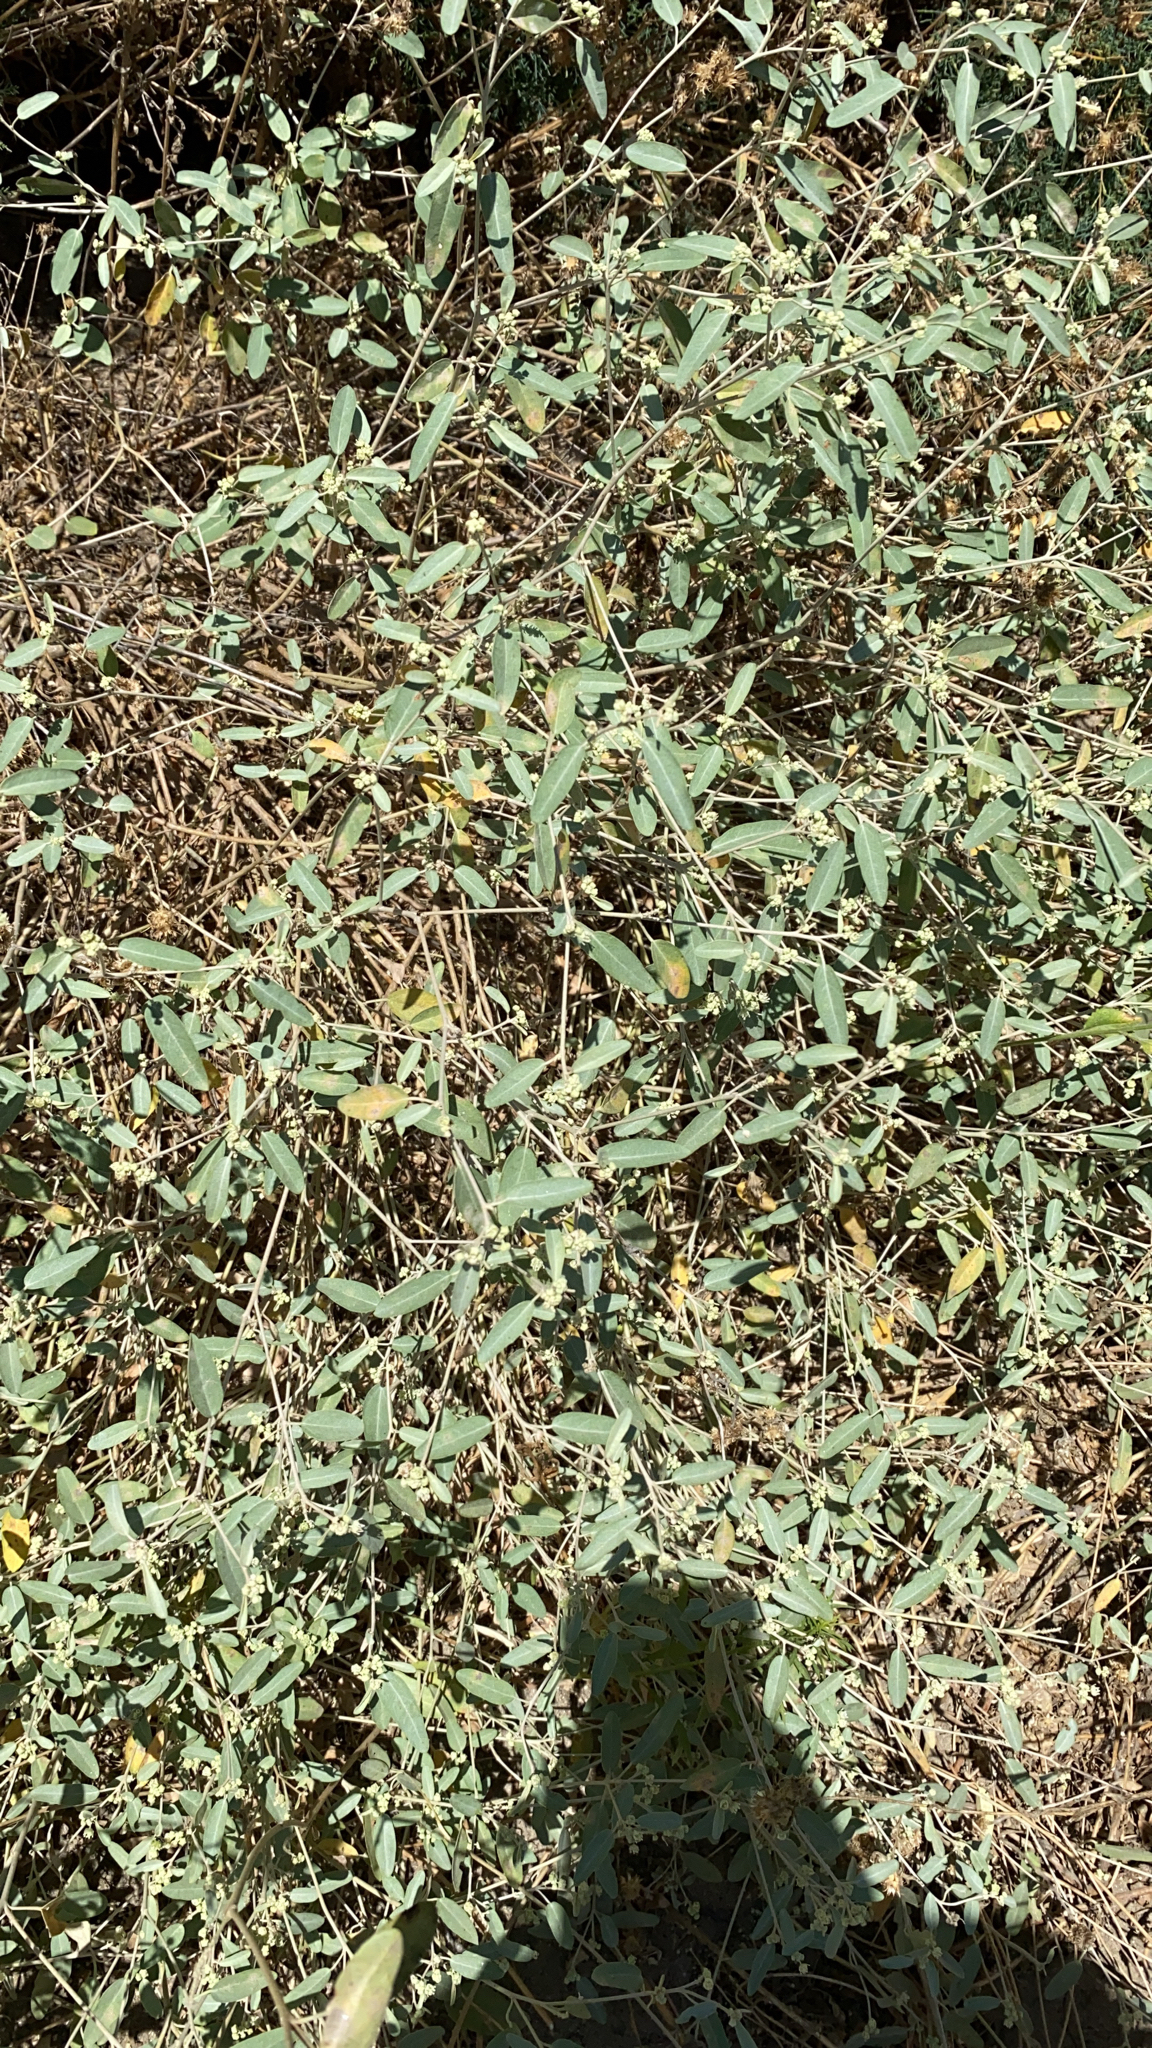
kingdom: Plantae
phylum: Tracheophyta
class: Magnoliopsida
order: Malpighiales
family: Euphorbiaceae
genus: Croton
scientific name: Croton californicus
